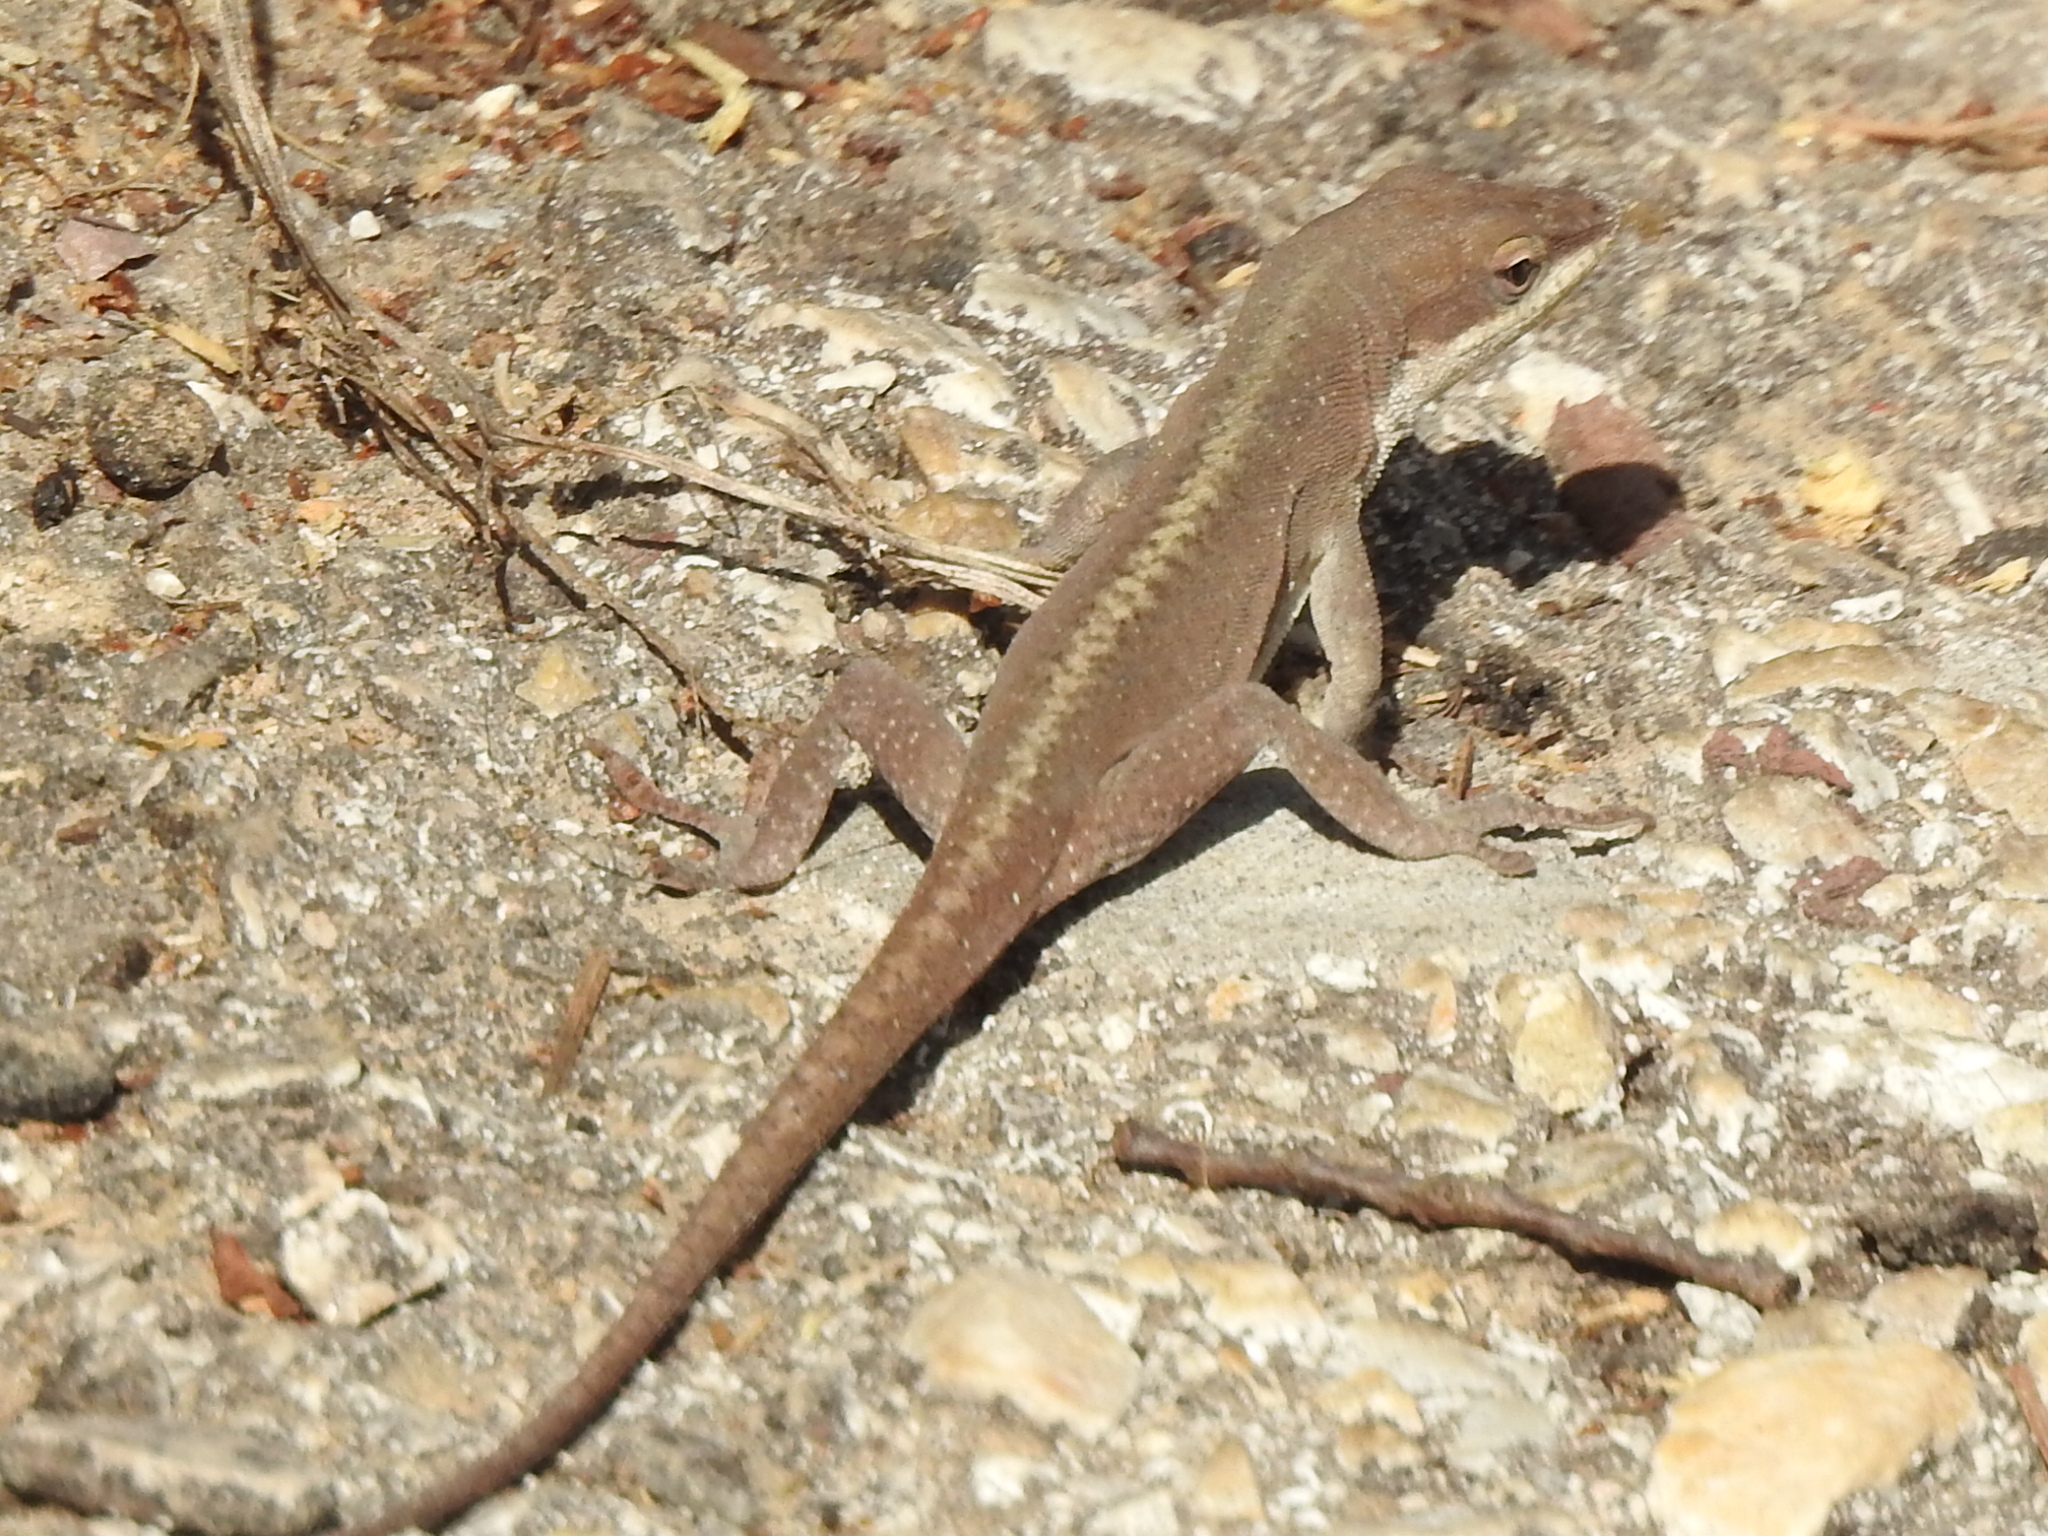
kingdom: Animalia
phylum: Chordata
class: Squamata
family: Dactyloidae
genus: Anolis
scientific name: Anolis carolinensis
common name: Green anole
